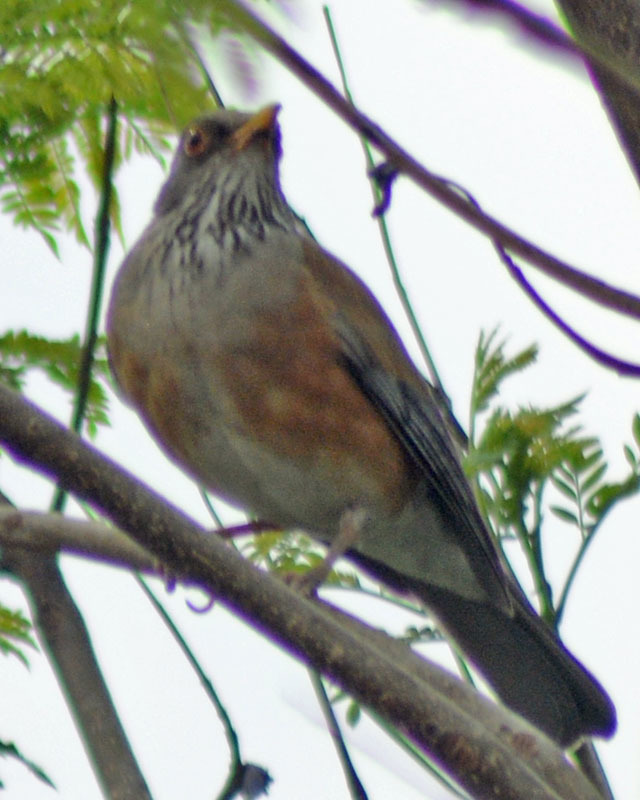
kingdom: Animalia
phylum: Chordata
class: Aves
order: Passeriformes
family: Turdidae
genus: Turdus
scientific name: Turdus rufopalliatus
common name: Rufous-backed robin
